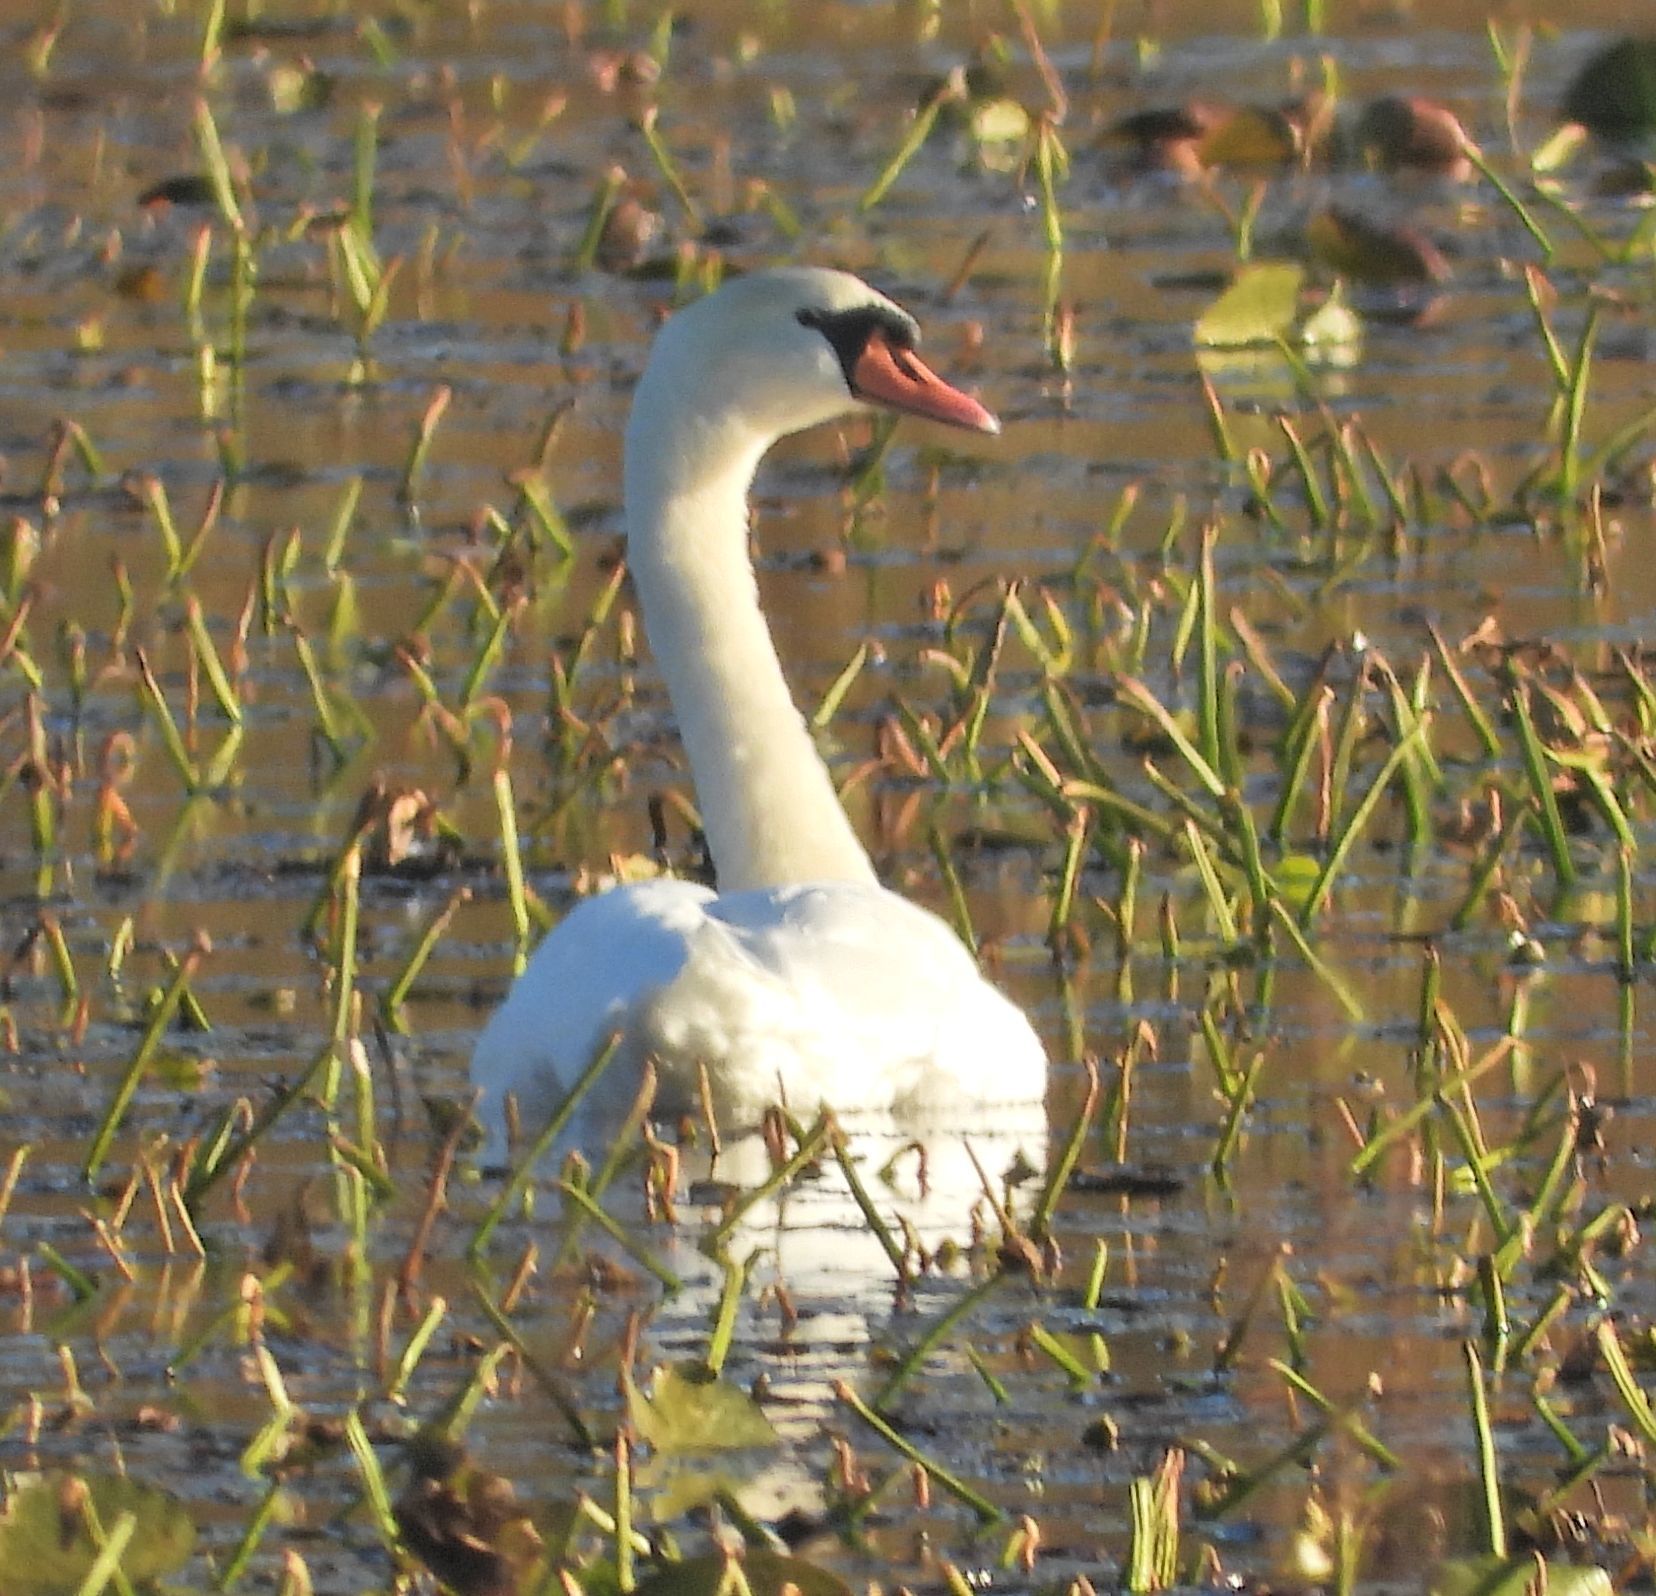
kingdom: Animalia
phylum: Chordata
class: Aves
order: Anseriformes
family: Anatidae
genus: Cygnus
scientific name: Cygnus olor
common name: Mute swan
